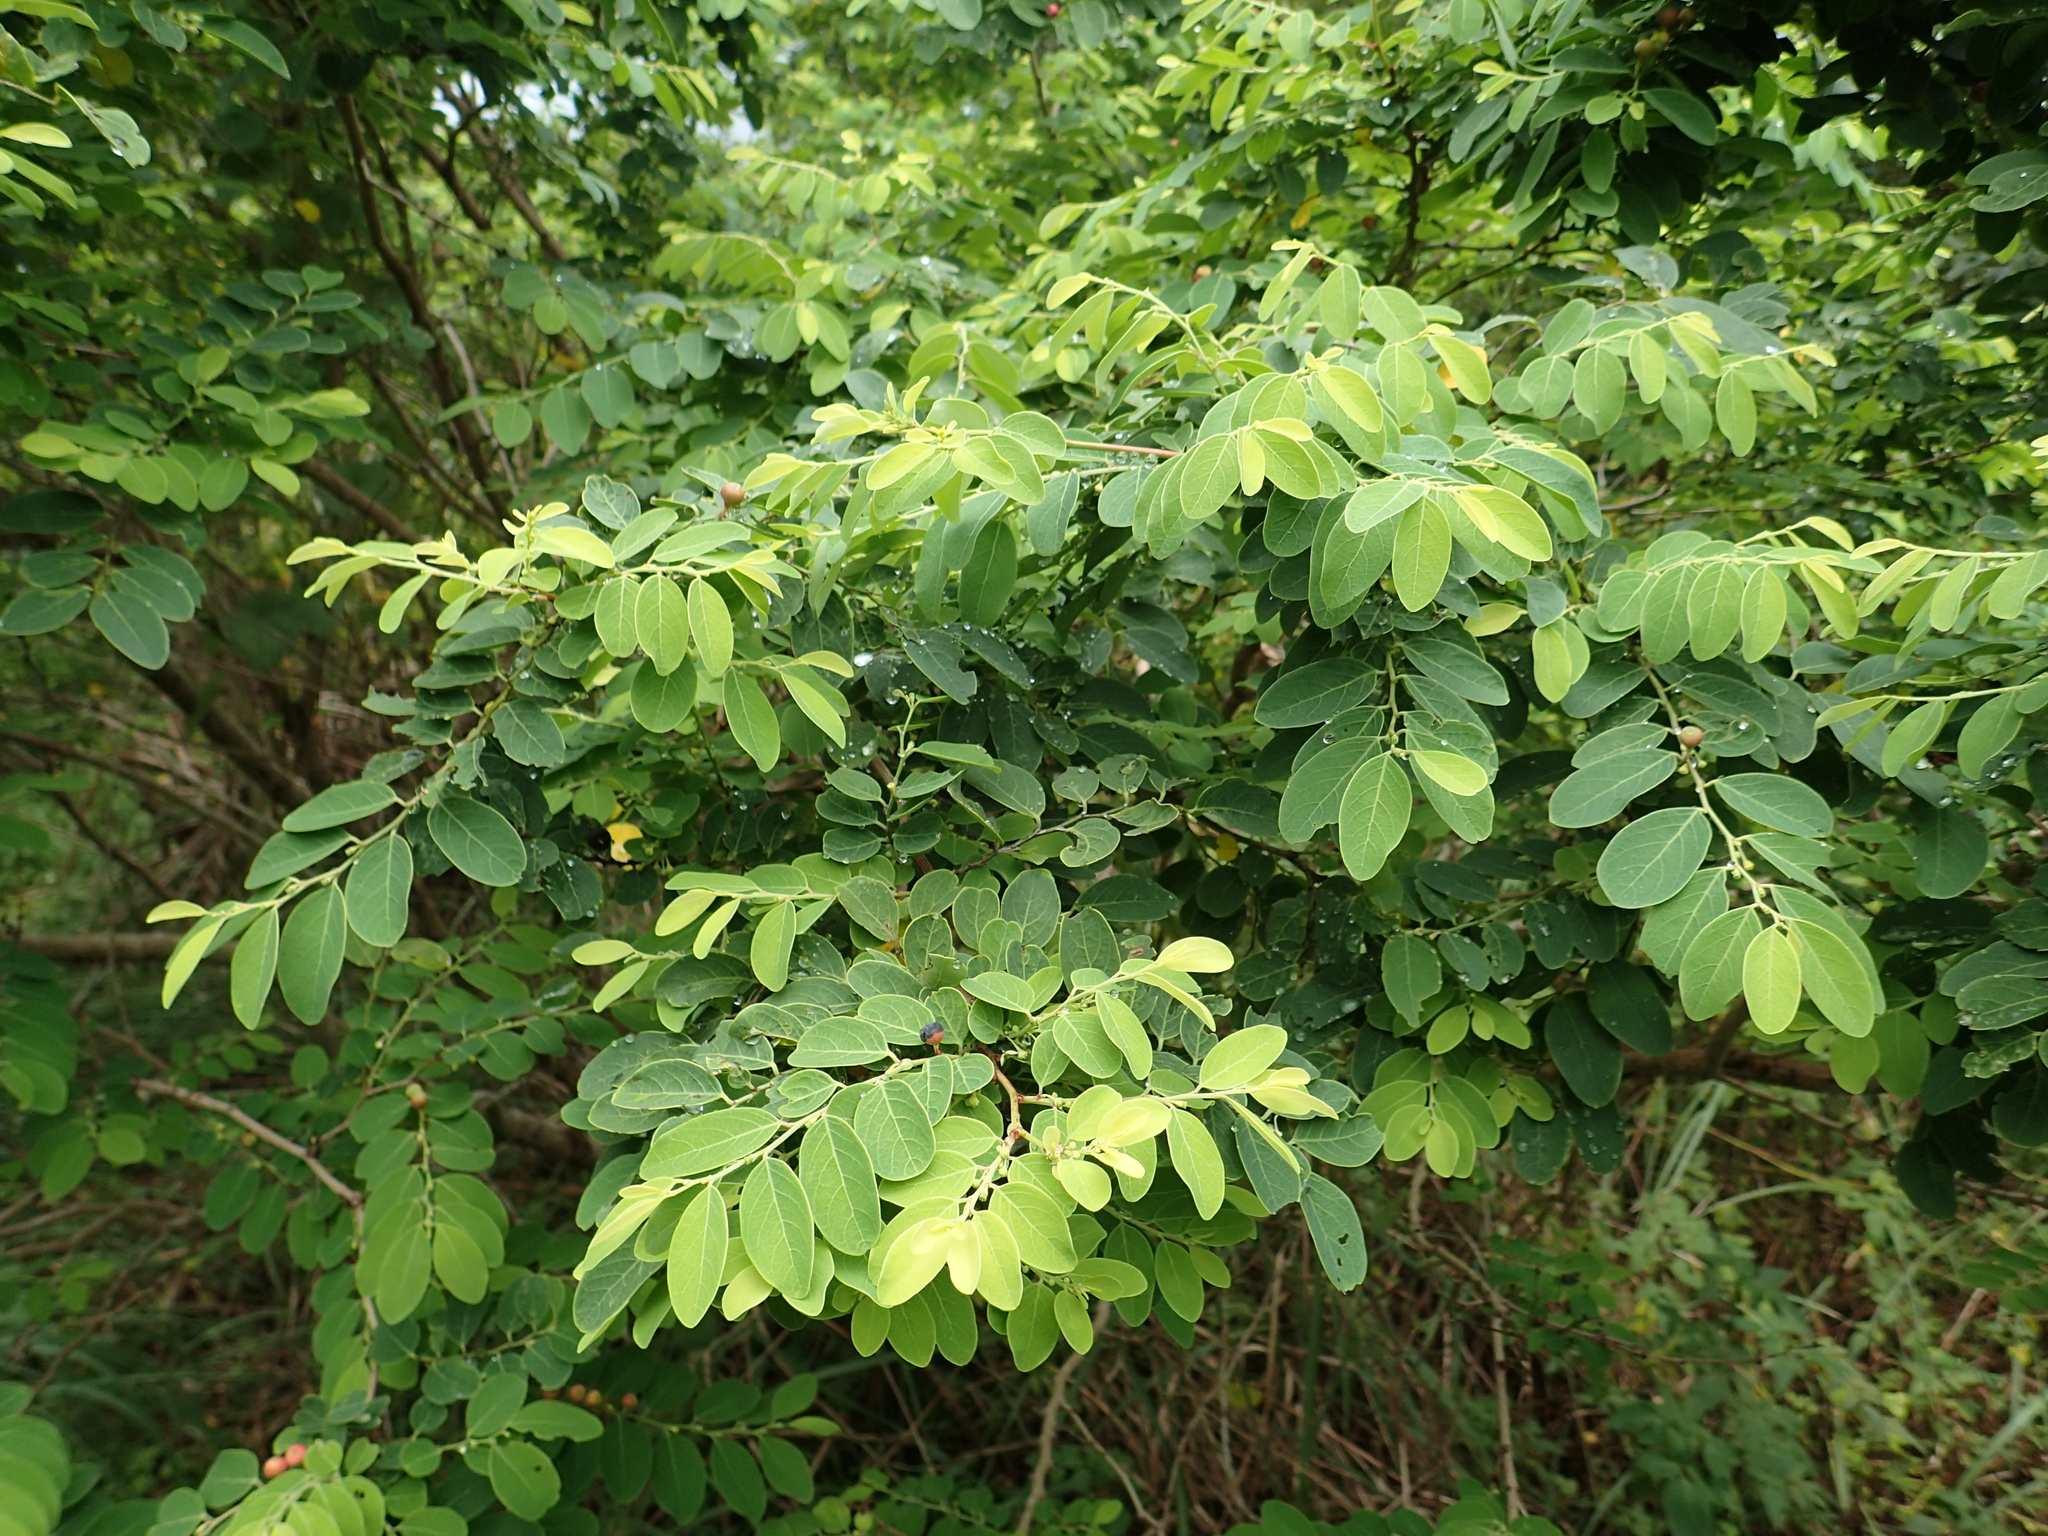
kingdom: Plantae
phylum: Tracheophyta
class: Magnoliopsida
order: Malpighiales
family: Phyllanthaceae
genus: Breynia
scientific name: Breynia vitis-idaea
